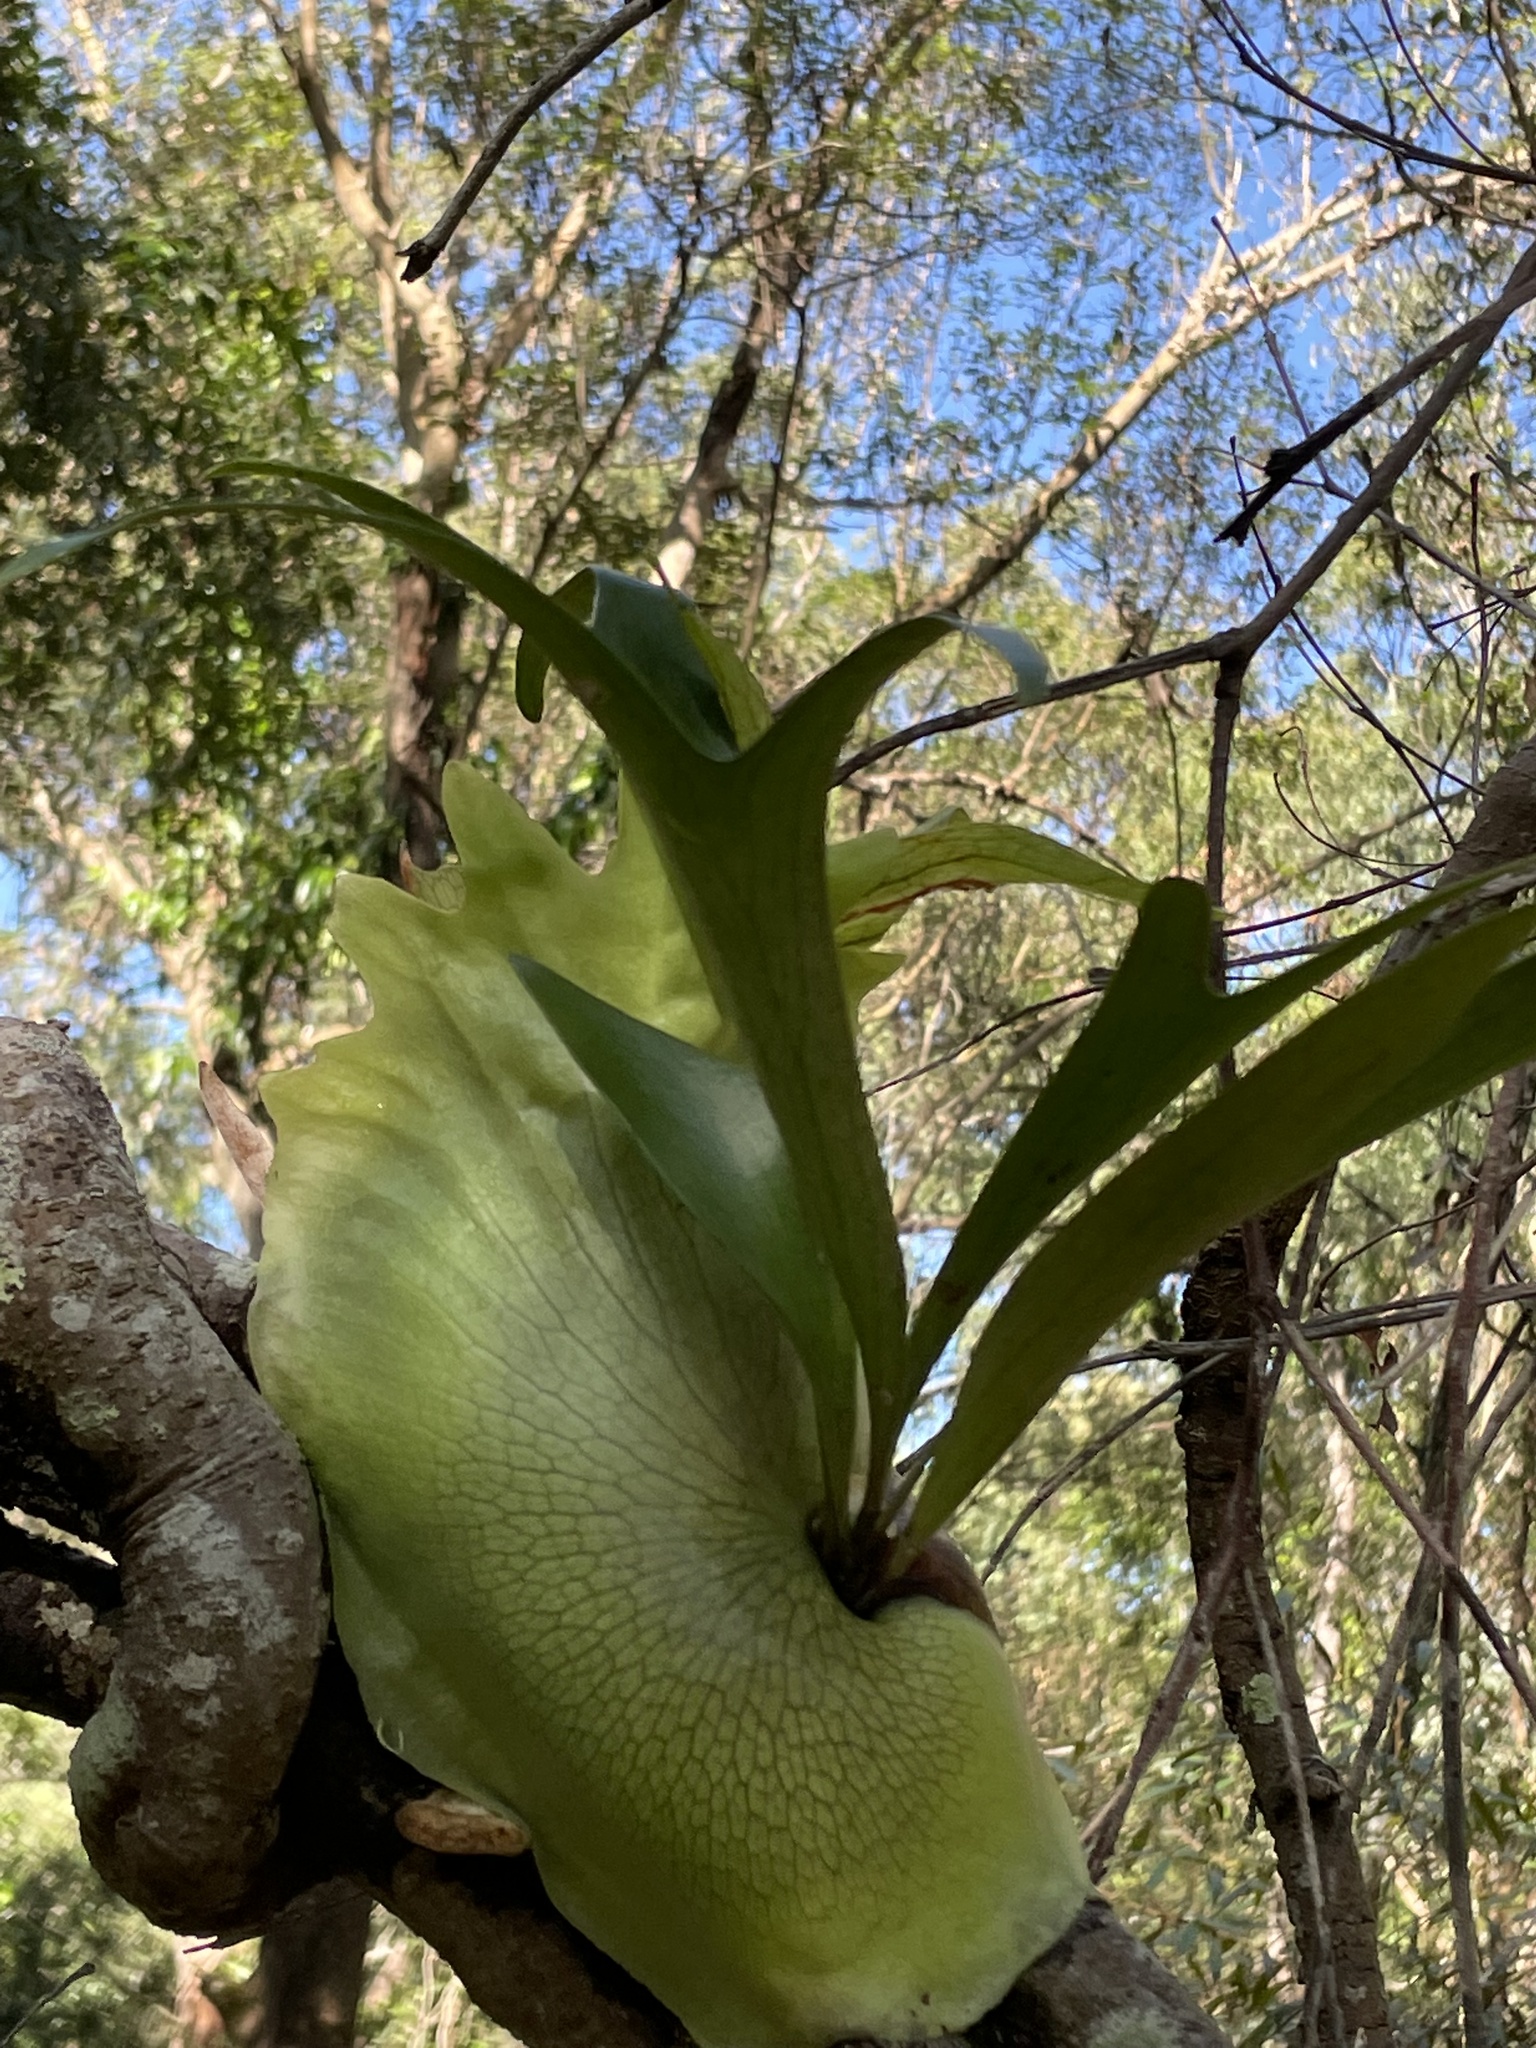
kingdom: Plantae
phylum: Tracheophyta
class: Polypodiopsida
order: Polypodiales
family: Polypodiaceae
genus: Platycerium
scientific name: Platycerium bifurcatum
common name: Elkhorn fern
